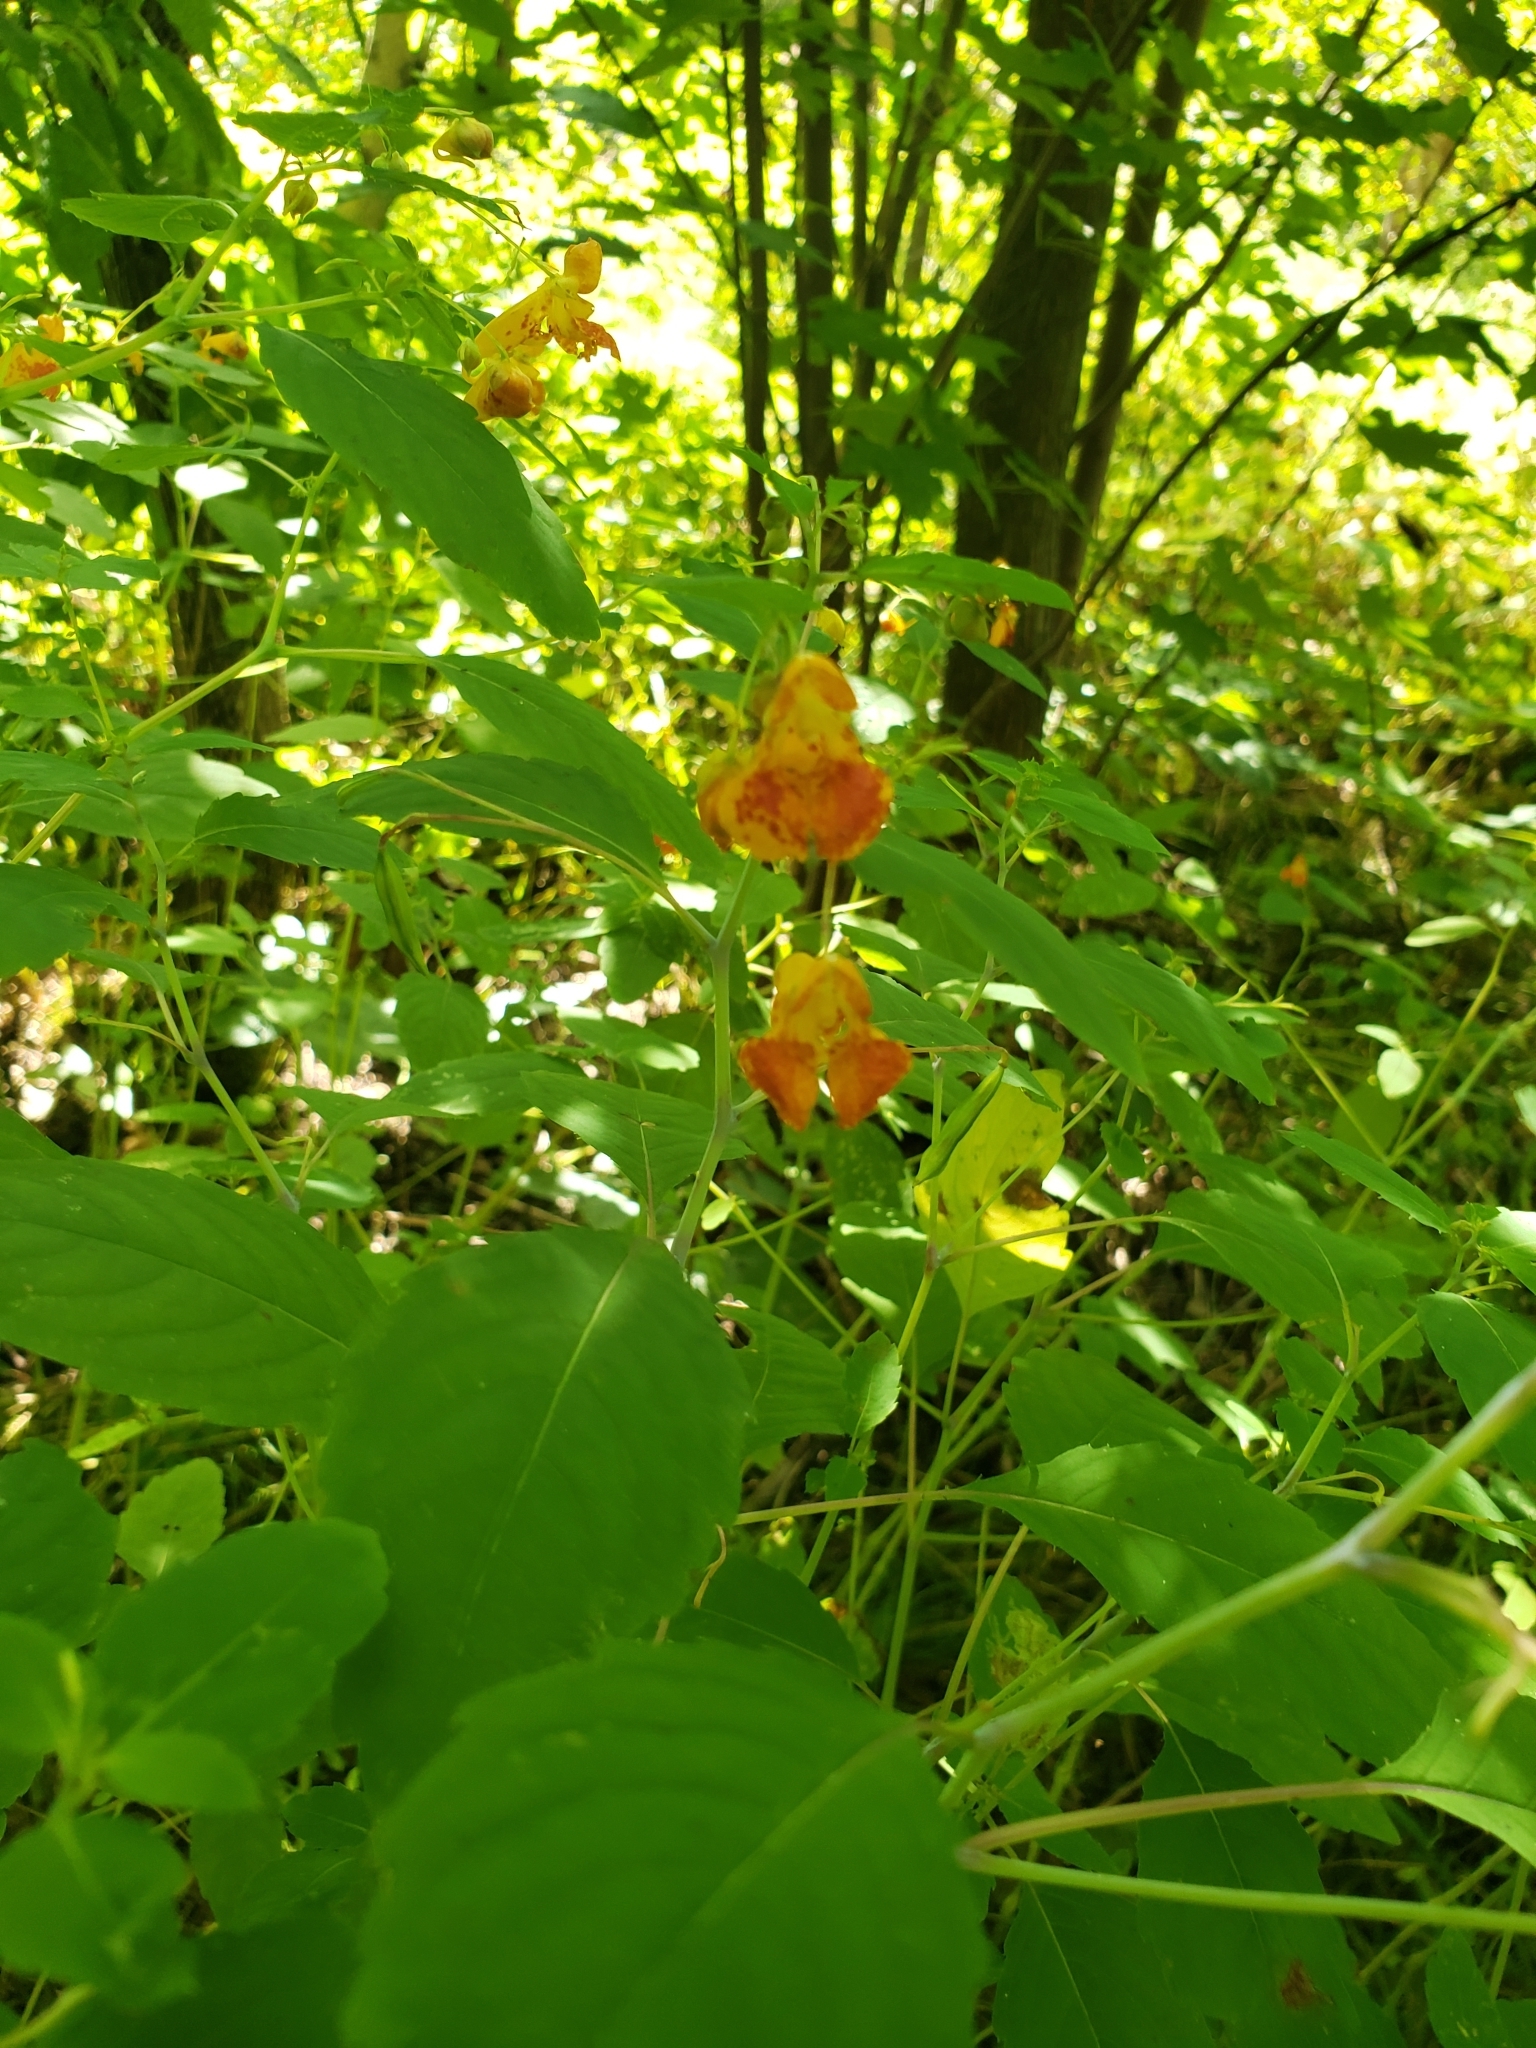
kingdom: Plantae
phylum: Tracheophyta
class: Magnoliopsida
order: Ericales
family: Balsaminaceae
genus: Impatiens
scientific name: Impatiens capensis
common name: Orange balsam
